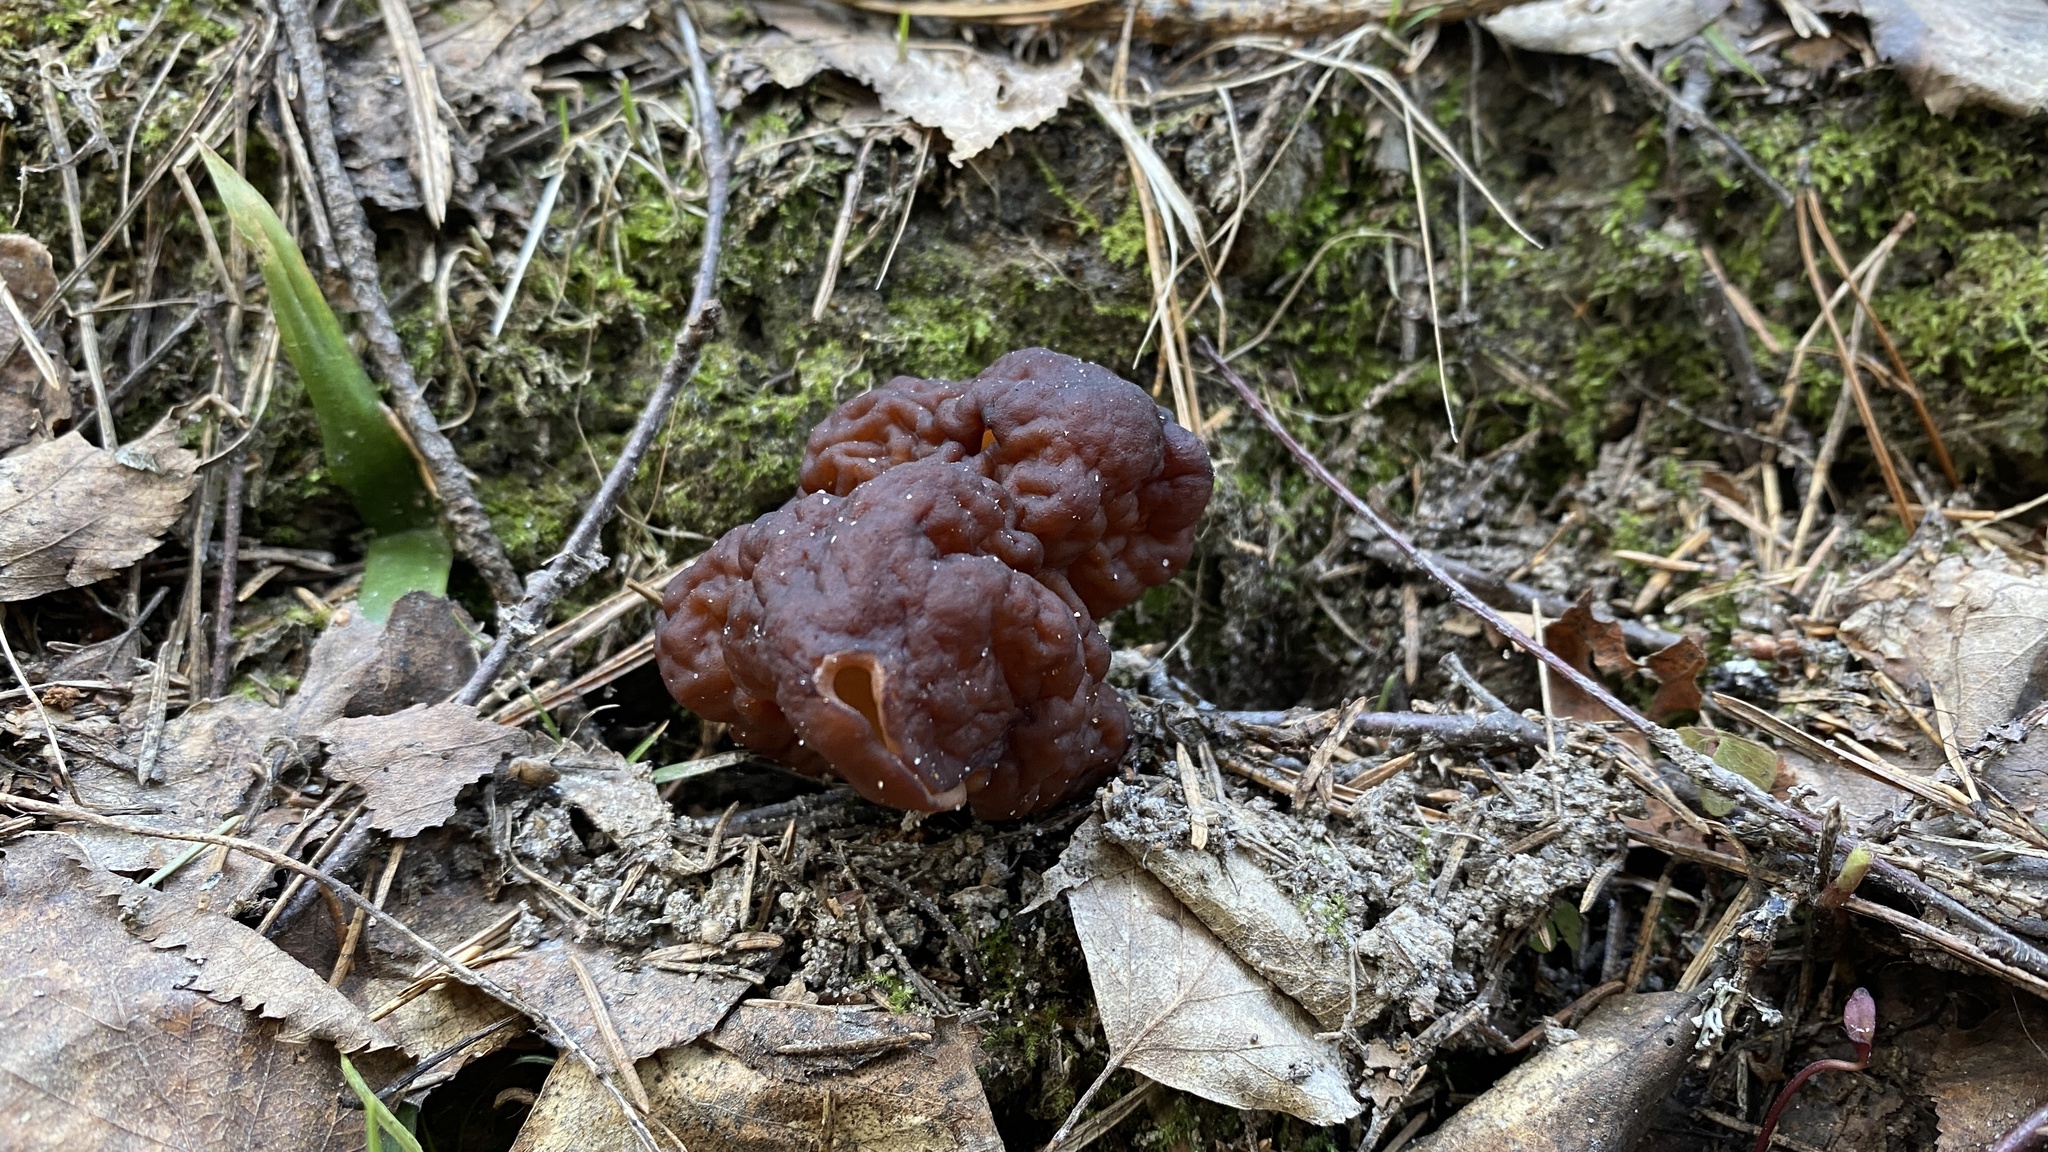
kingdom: Fungi
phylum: Ascomycota
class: Pezizomycetes
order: Pezizales
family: Discinaceae
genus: Gyromitra
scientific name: Gyromitra esculenta
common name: False morel
